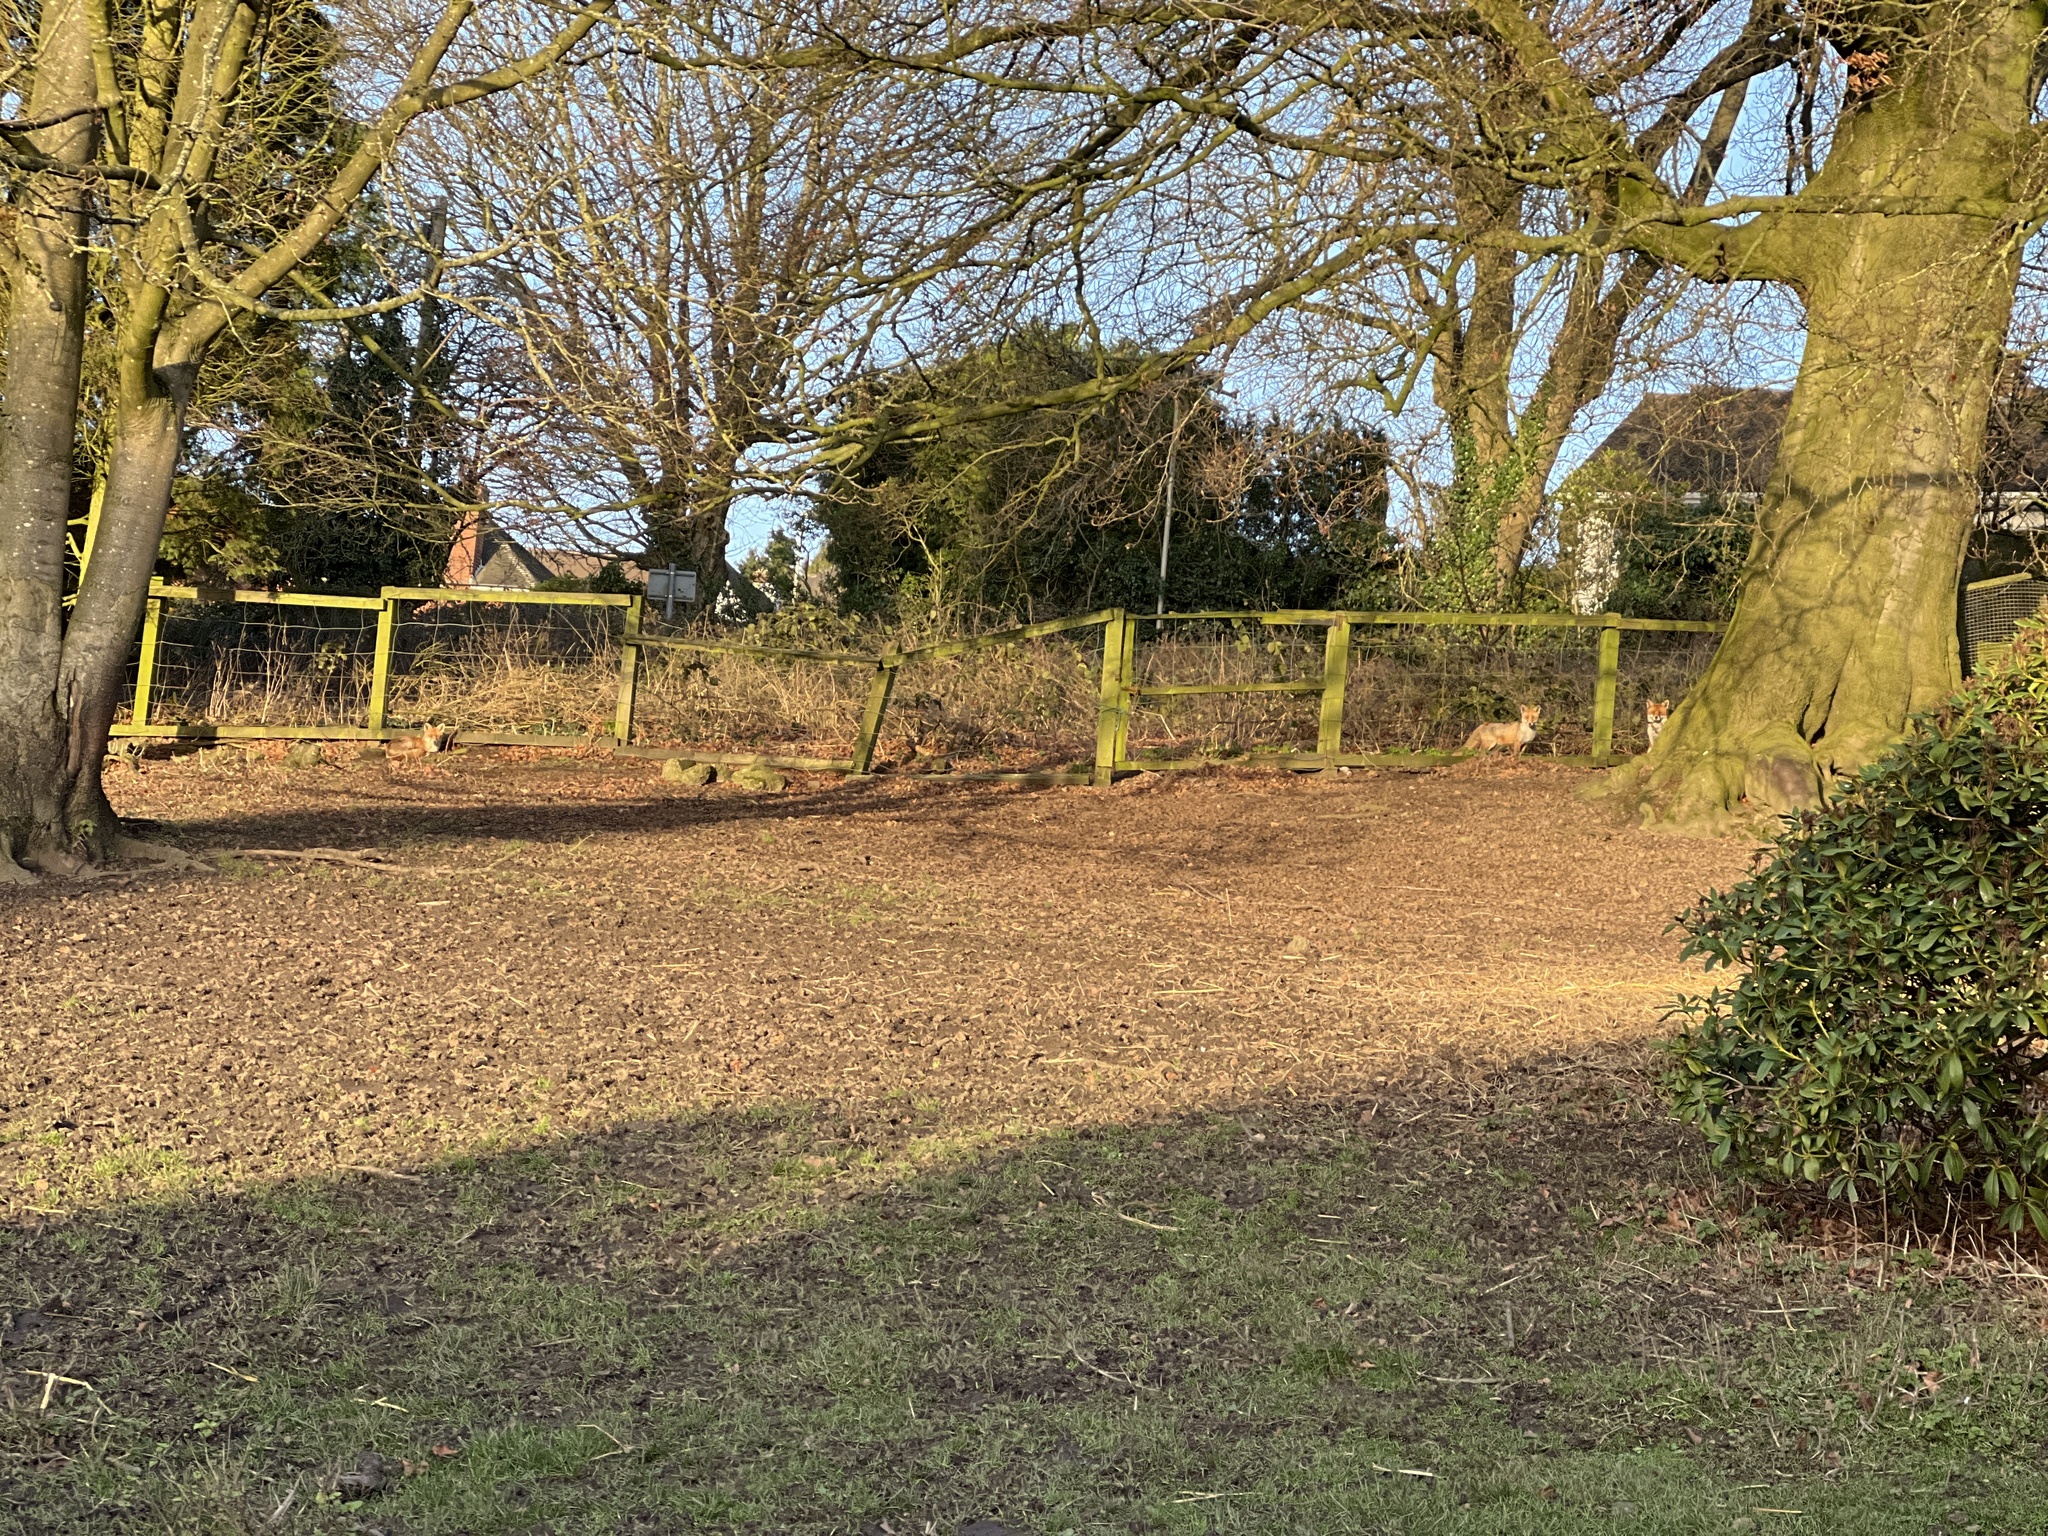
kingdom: Animalia
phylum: Chordata
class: Mammalia
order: Carnivora
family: Canidae
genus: Vulpes
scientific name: Vulpes vulpes
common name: Red fox
